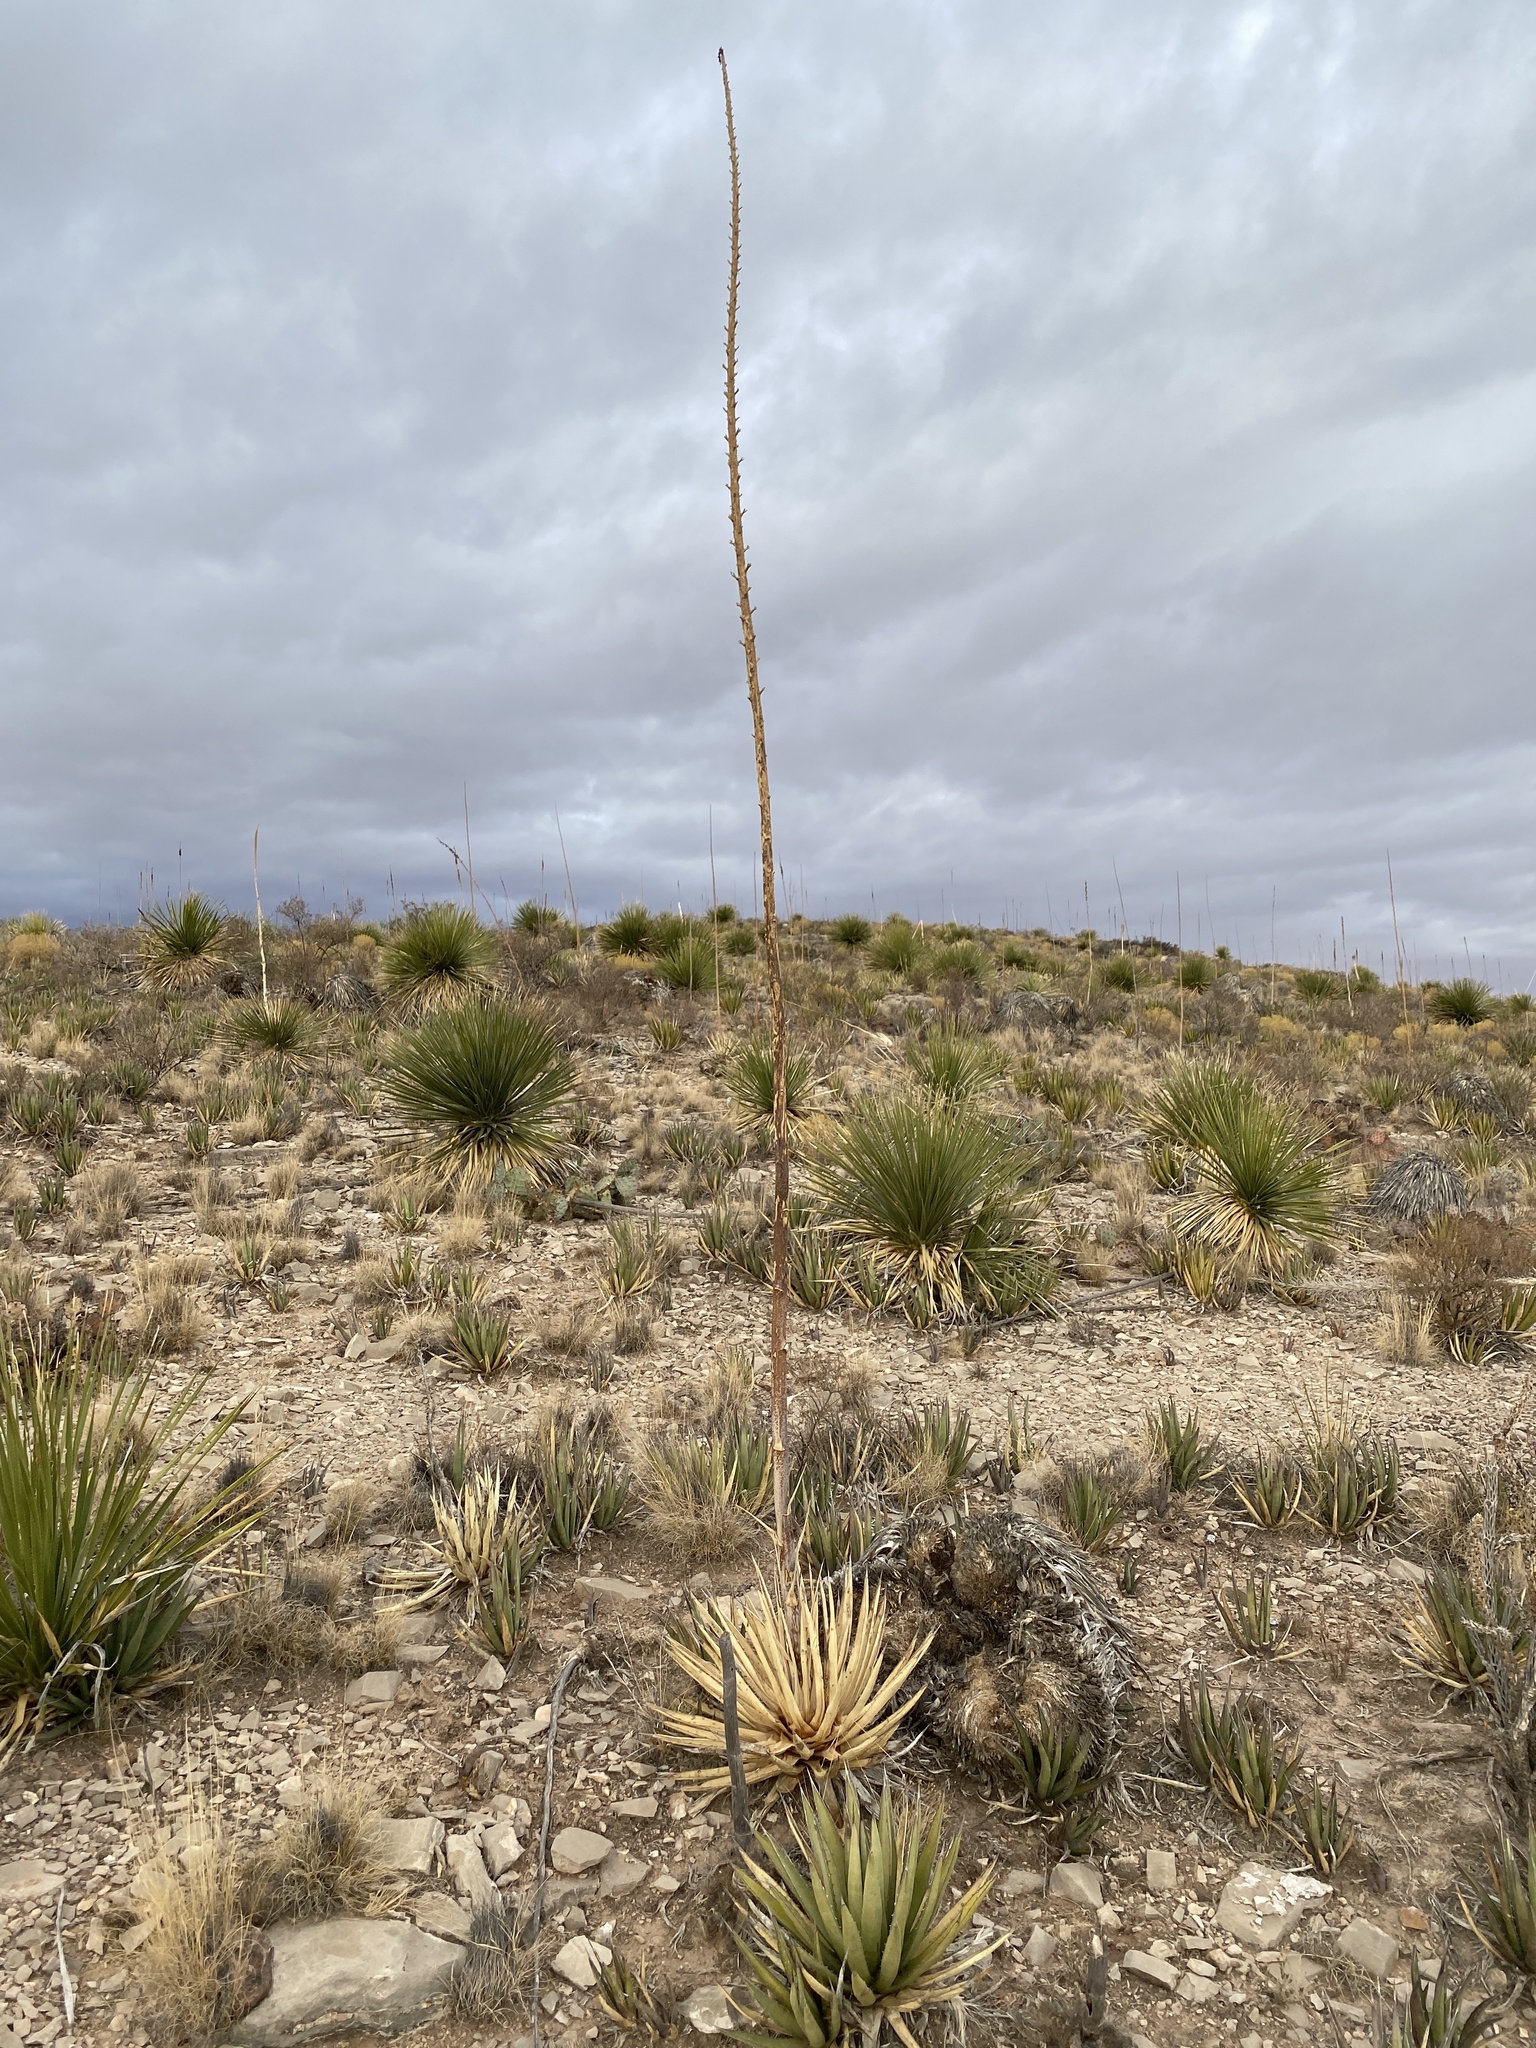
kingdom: Plantae
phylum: Tracheophyta
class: Liliopsida
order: Asparagales
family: Asparagaceae
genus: Agave
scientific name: Agave lechuguilla
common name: Lecheguilla agave
